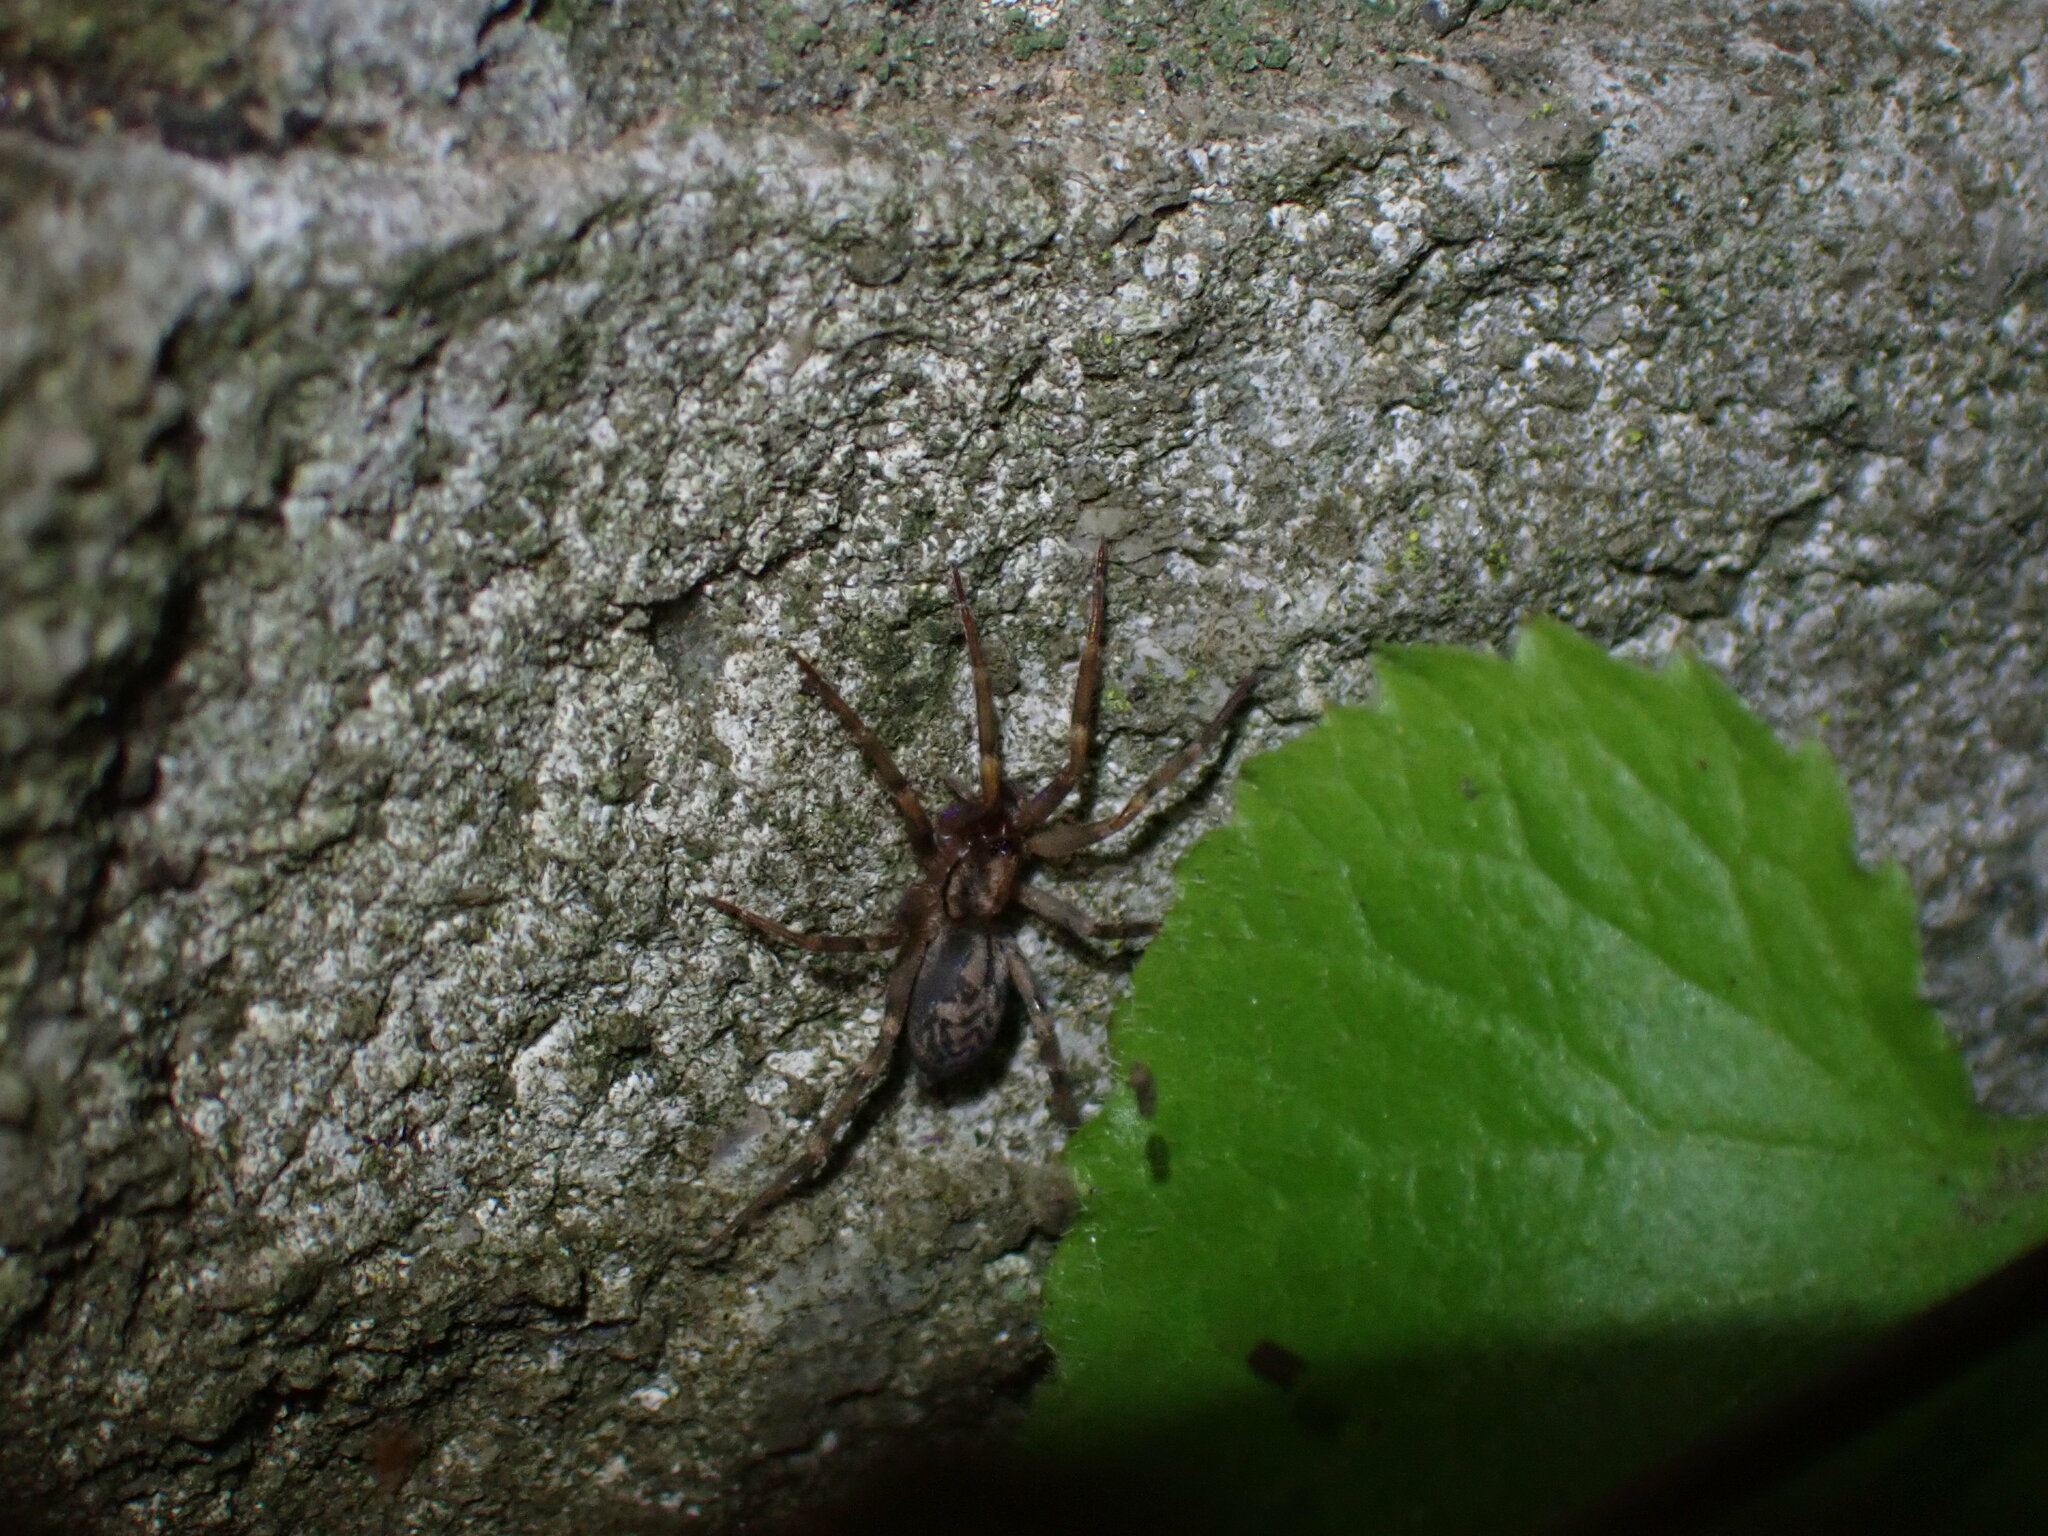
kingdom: Animalia
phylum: Arthropoda
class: Arachnida
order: Araneae
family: Liocranidae
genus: Liocranum
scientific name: Liocranum rupicola
